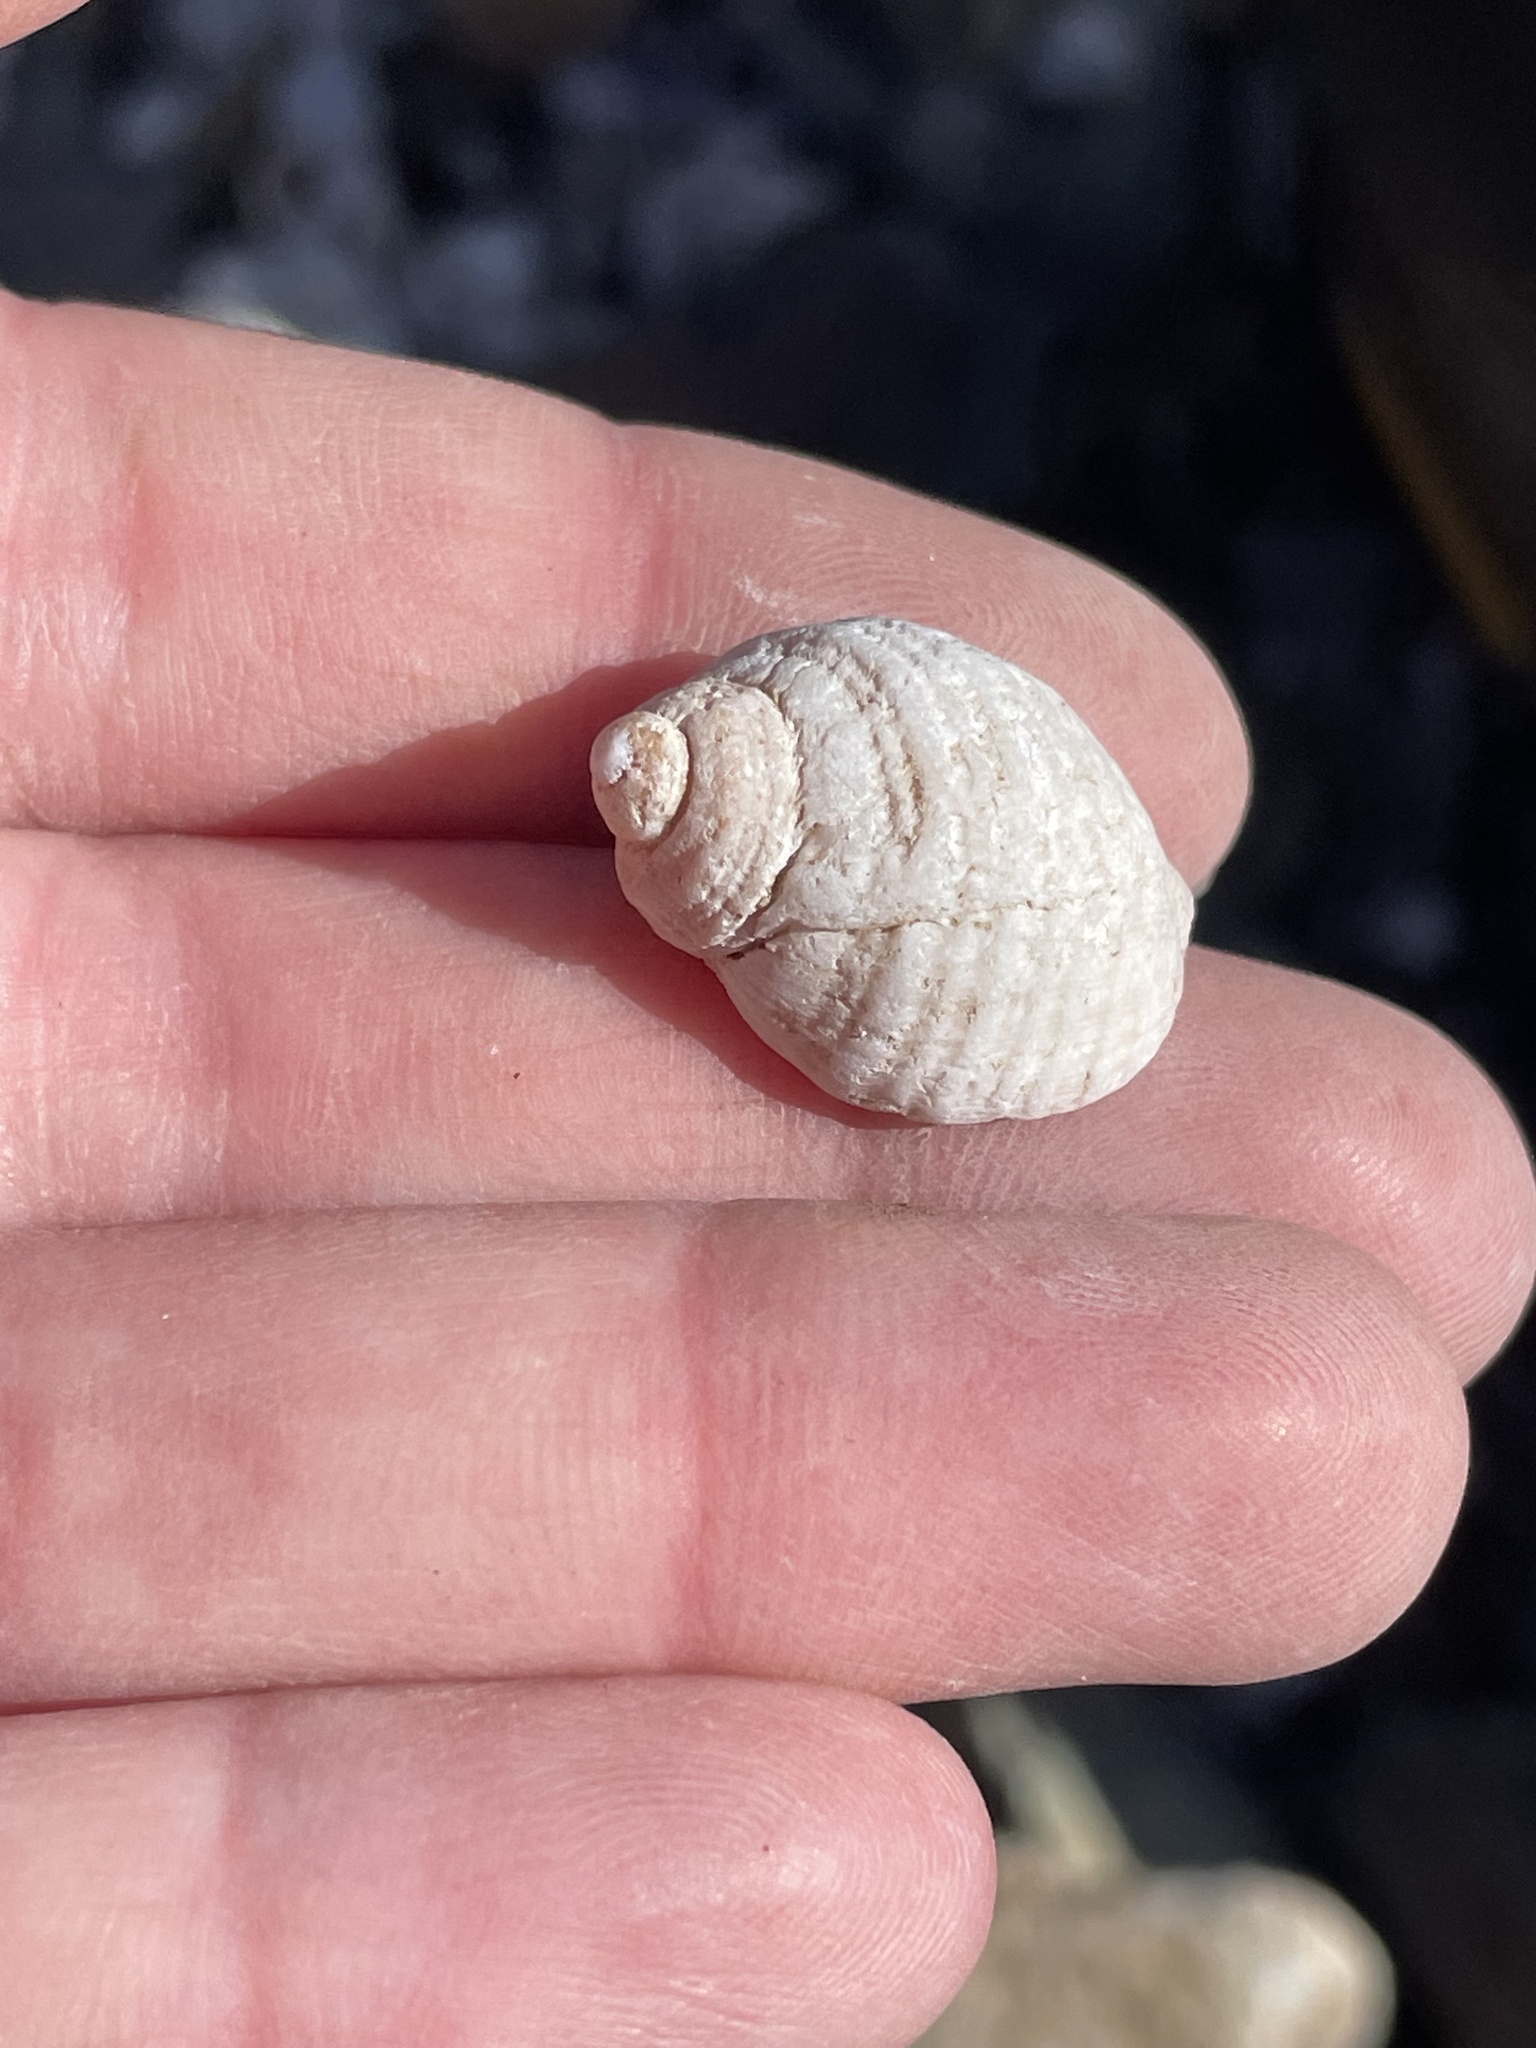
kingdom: Animalia
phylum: Mollusca
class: Gastropoda
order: Neogastropoda
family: Muricidae
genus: Nucella
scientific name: Nucella lapillus
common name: Dog whelk
